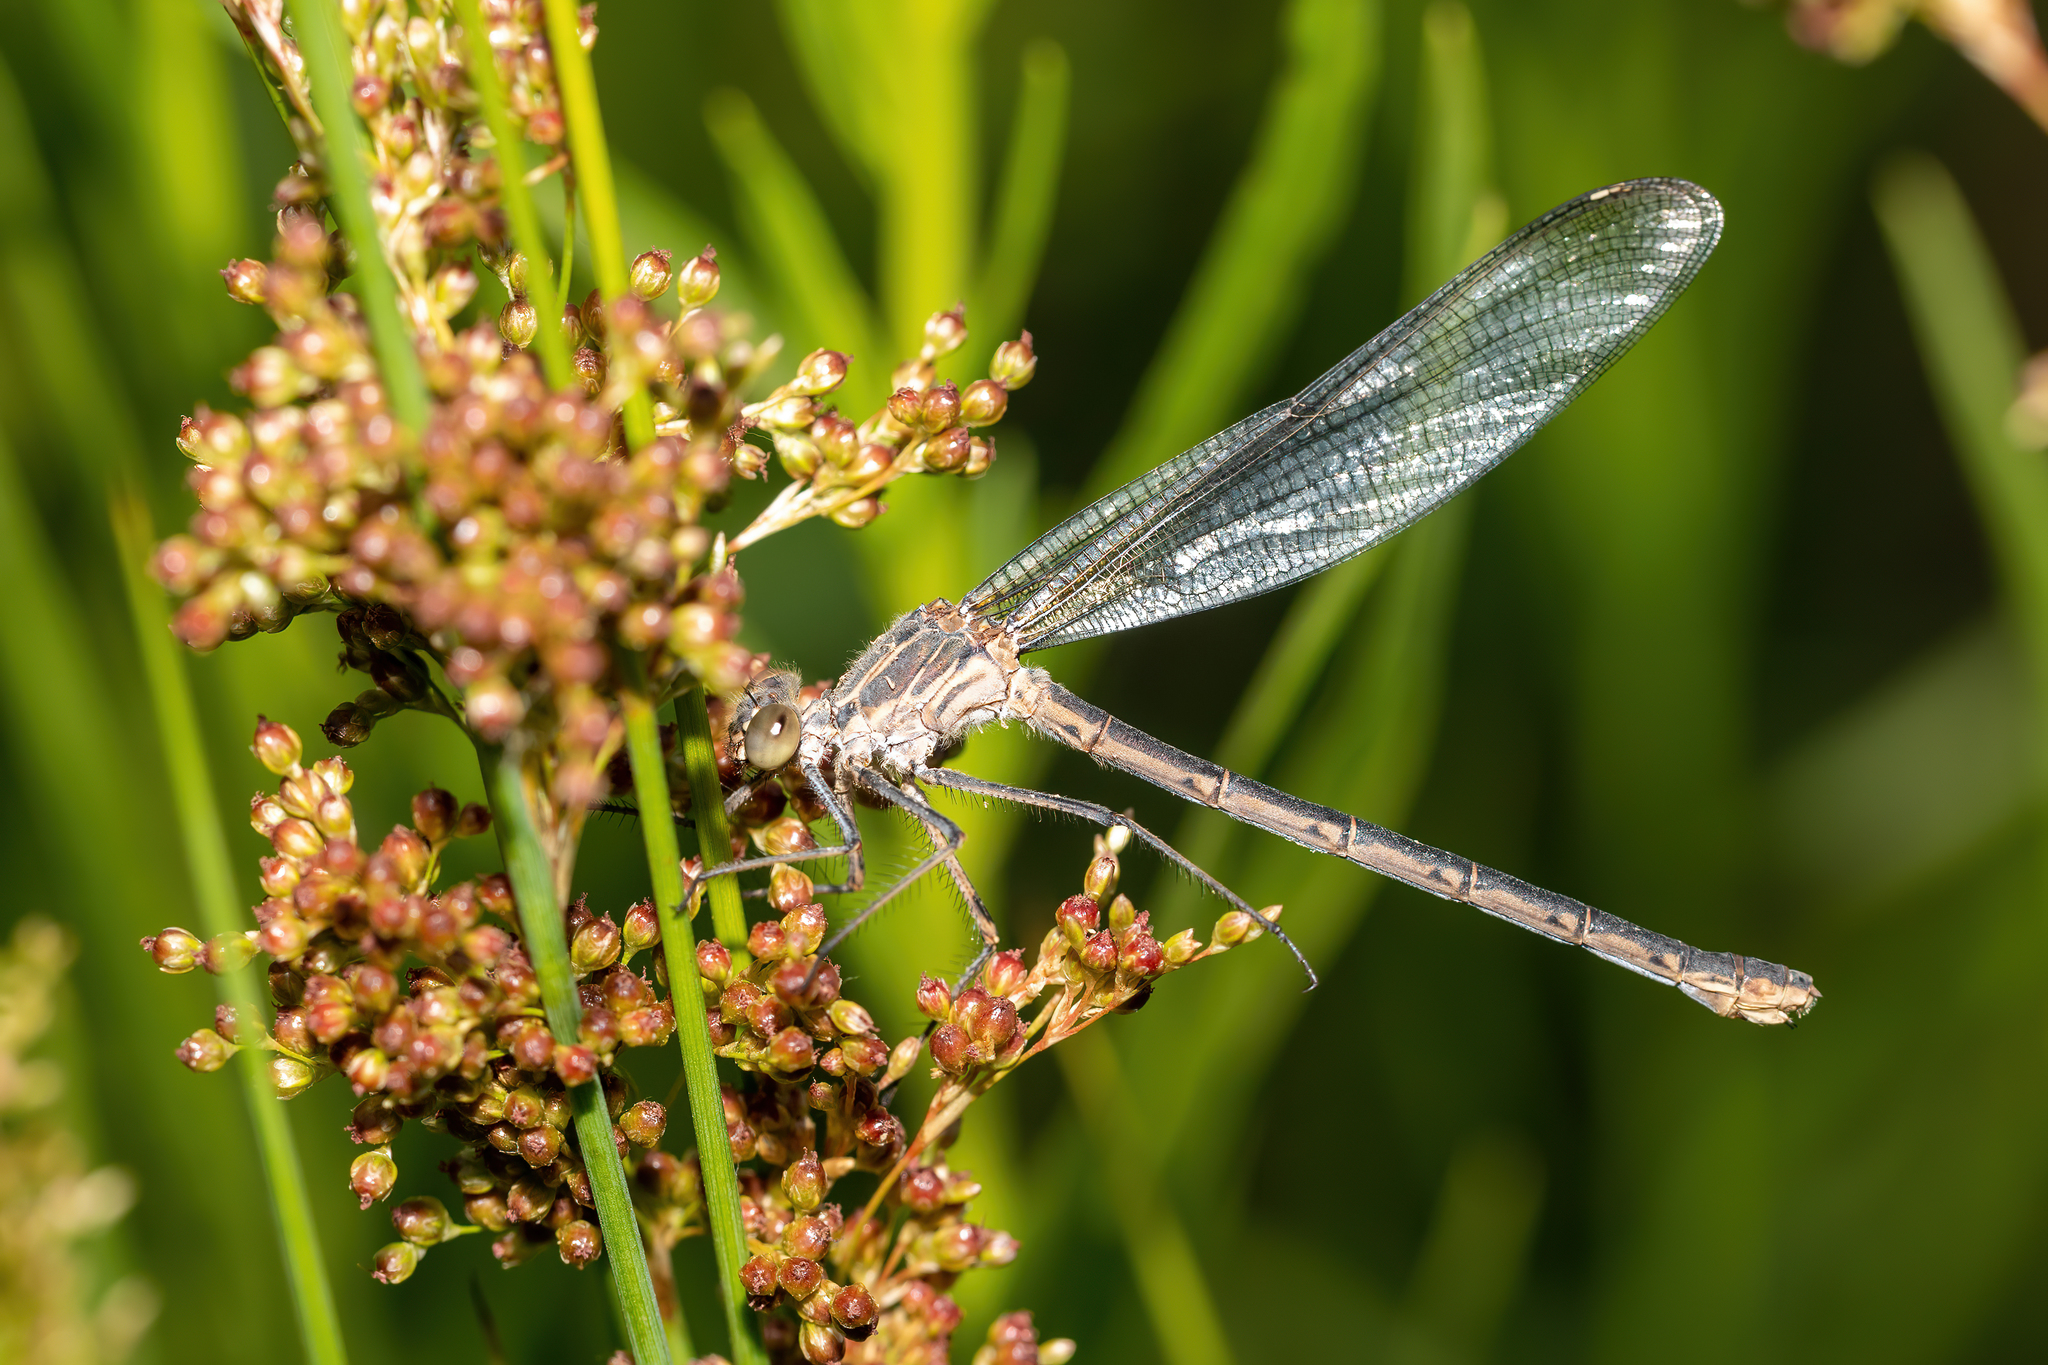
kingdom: Animalia
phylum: Arthropoda
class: Insecta
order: Odonata
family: Calopterygidae
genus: Hetaerina
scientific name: Hetaerina americana
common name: American rubyspot
